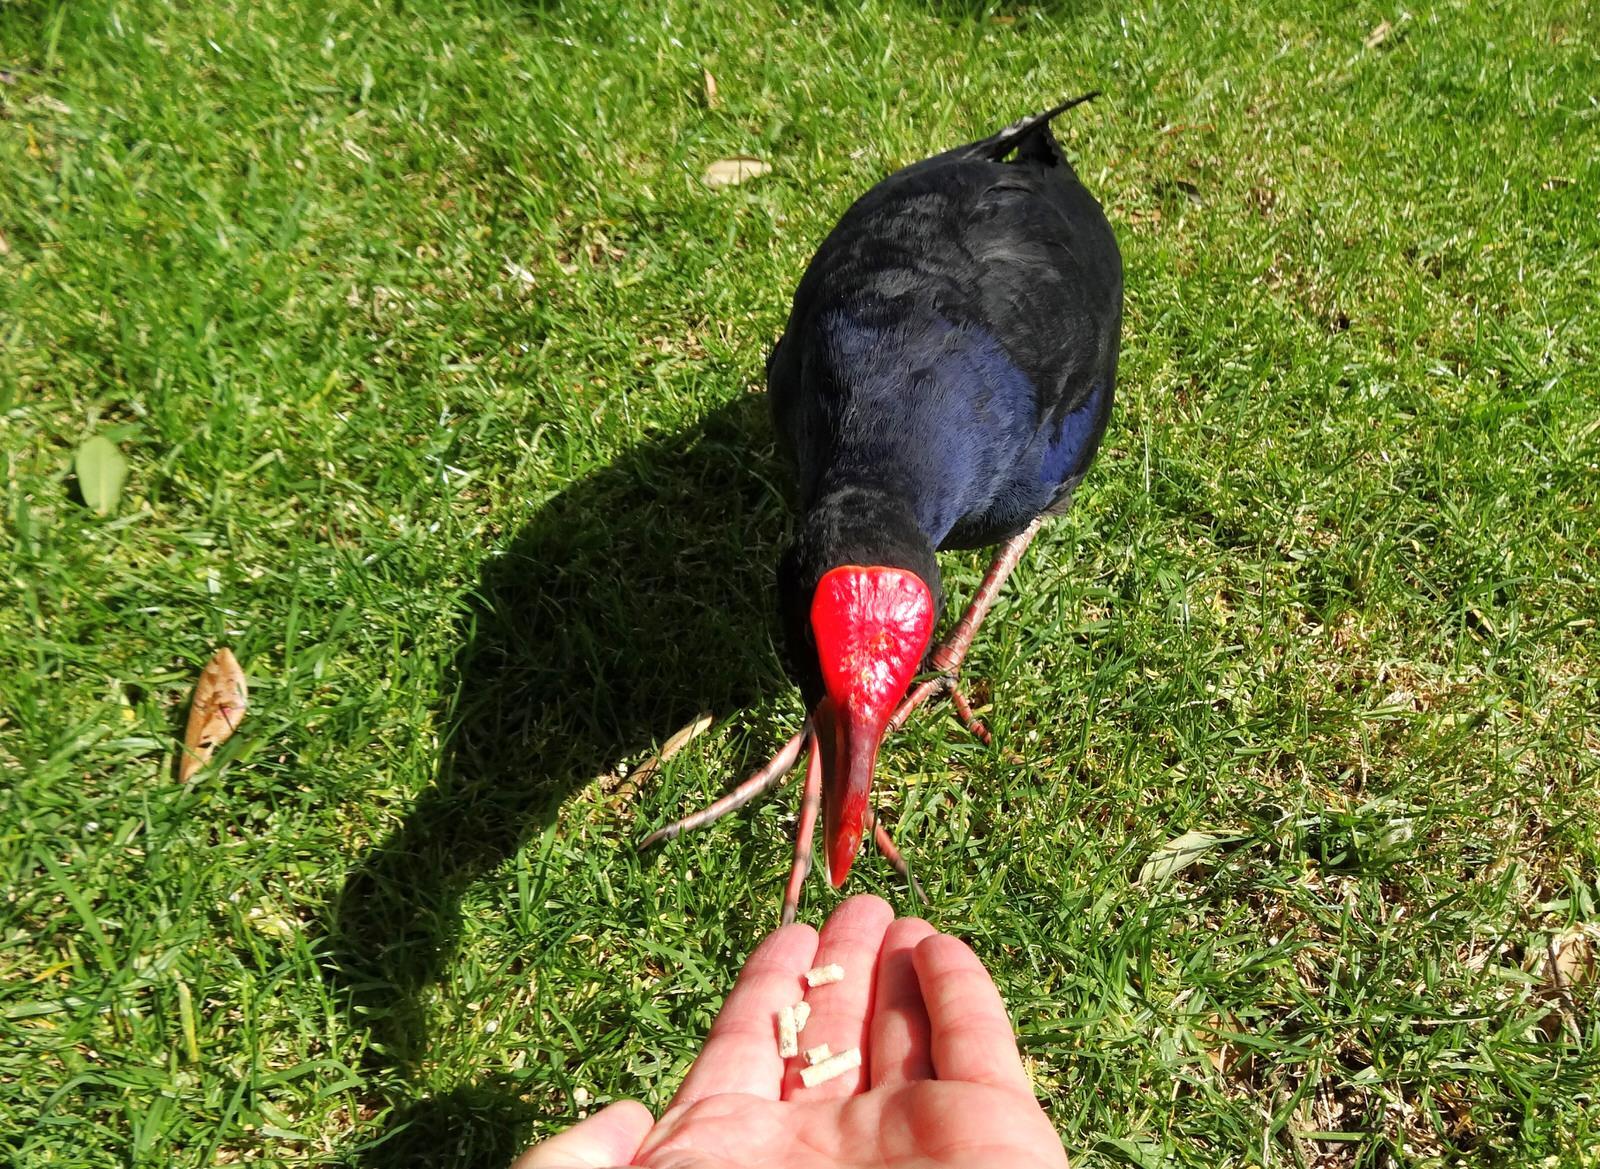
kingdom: Animalia
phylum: Chordata
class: Aves
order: Gruiformes
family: Rallidae
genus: Porphyrio
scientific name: Porphyrio melanotus
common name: Australasian swamphen
